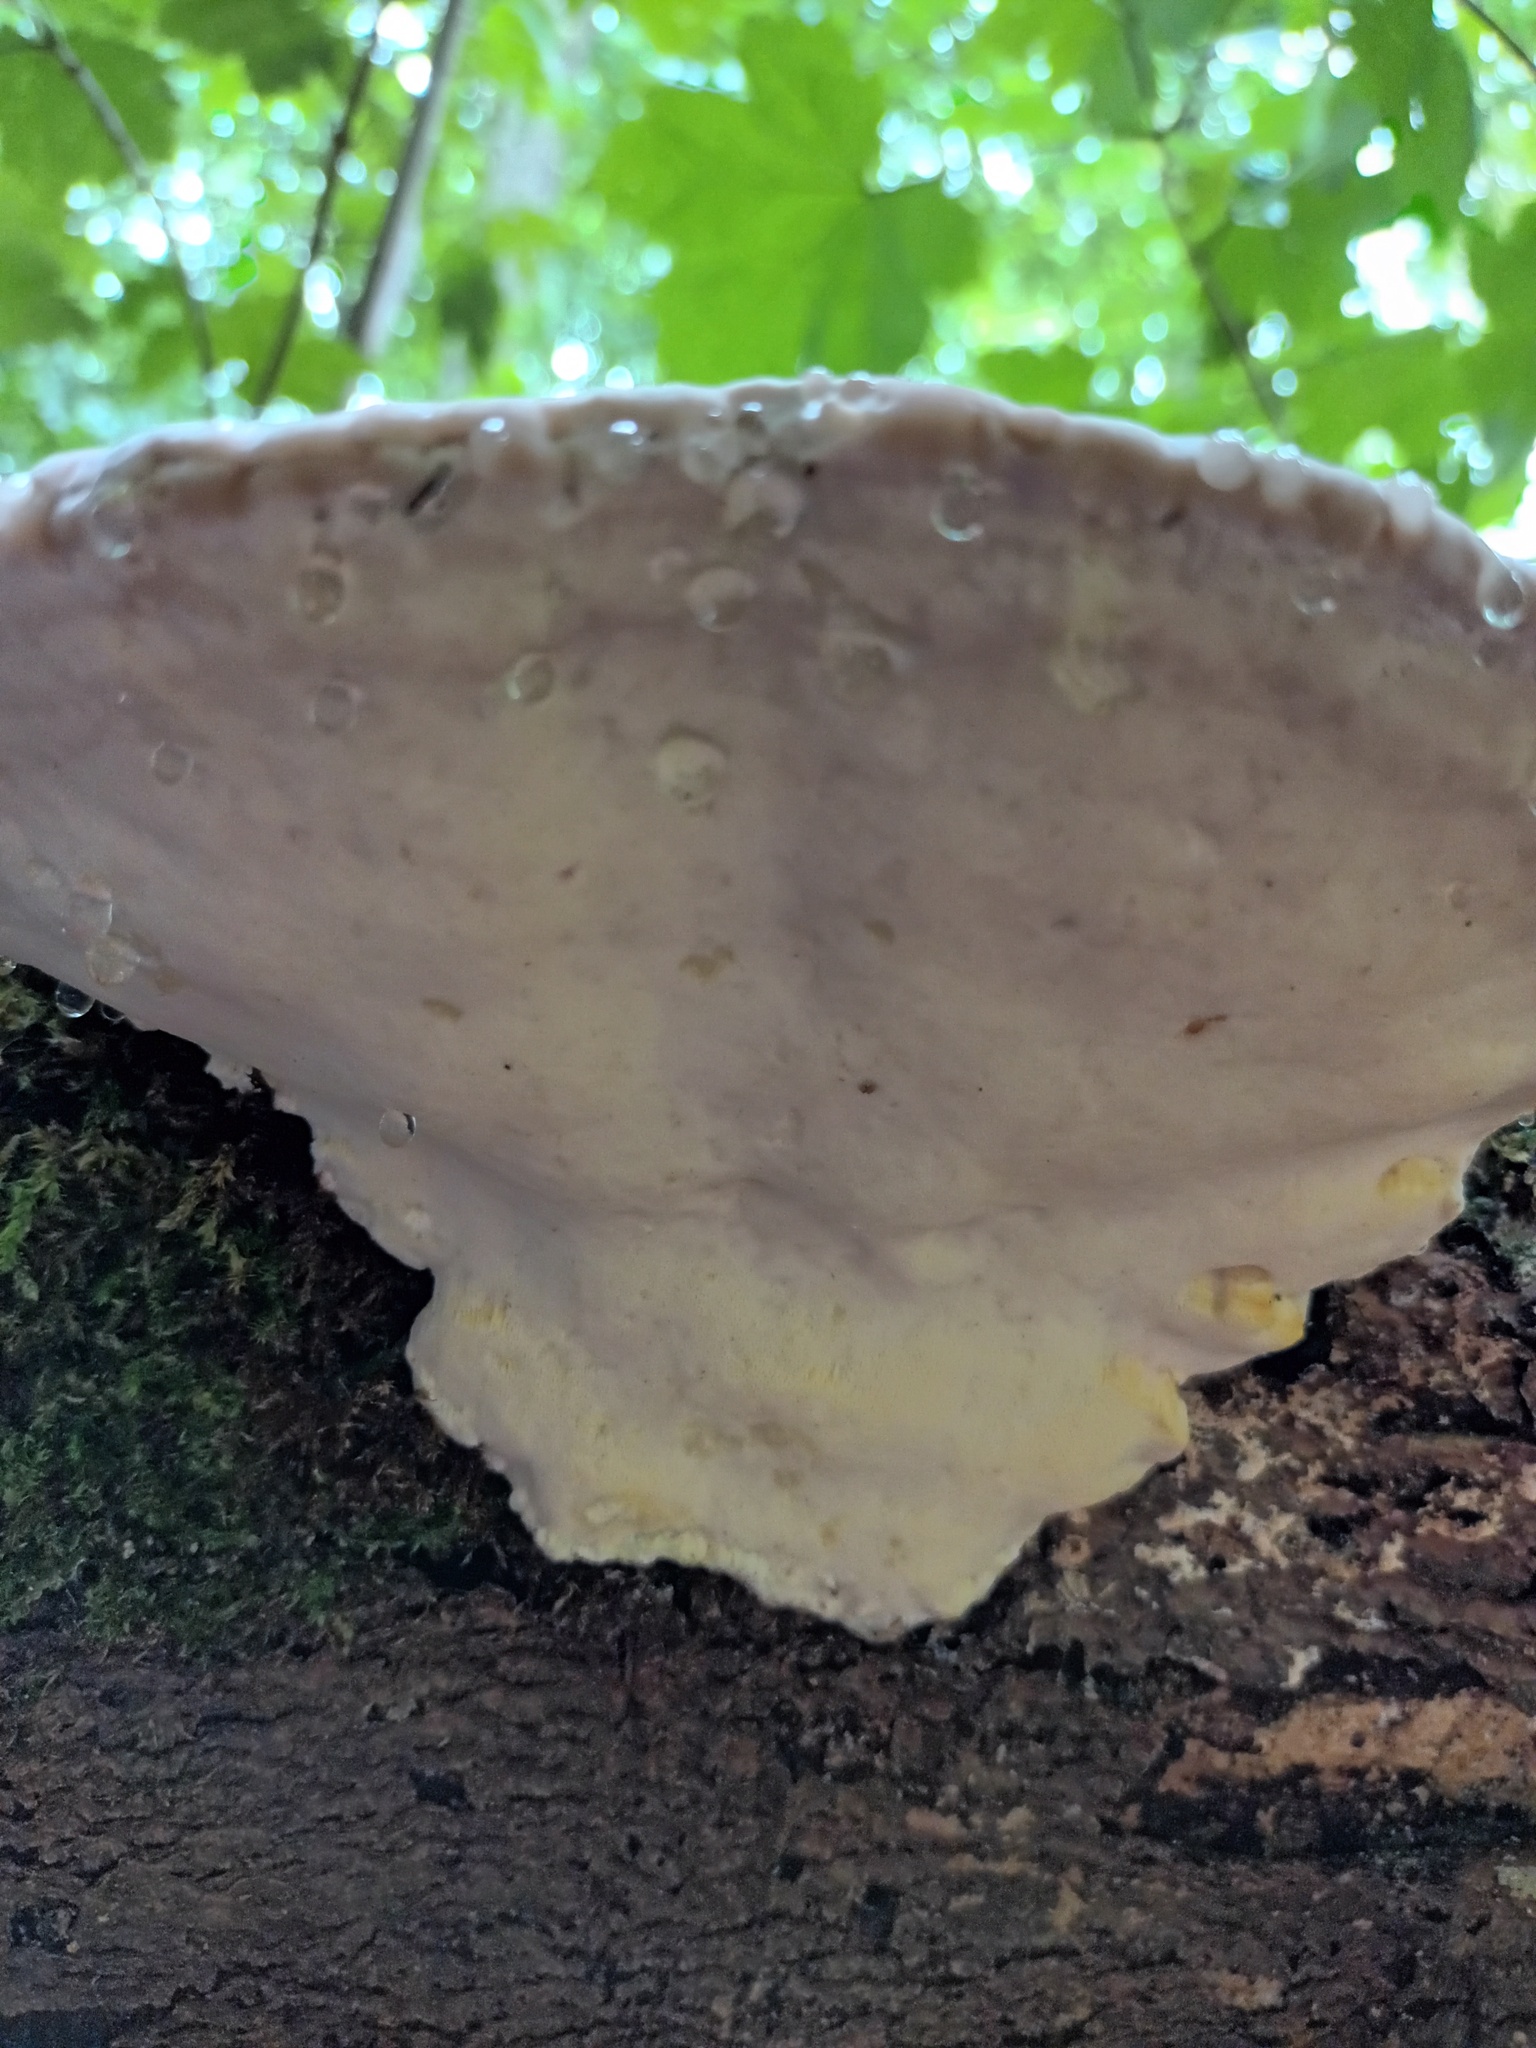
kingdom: Fungi
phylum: Basidiomycota
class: Agaricomycetes
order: Polyporales
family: Fomitopsidaceae
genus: Fomitopsis
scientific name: Fomitopsis pinicola
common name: Red-belted bracket
